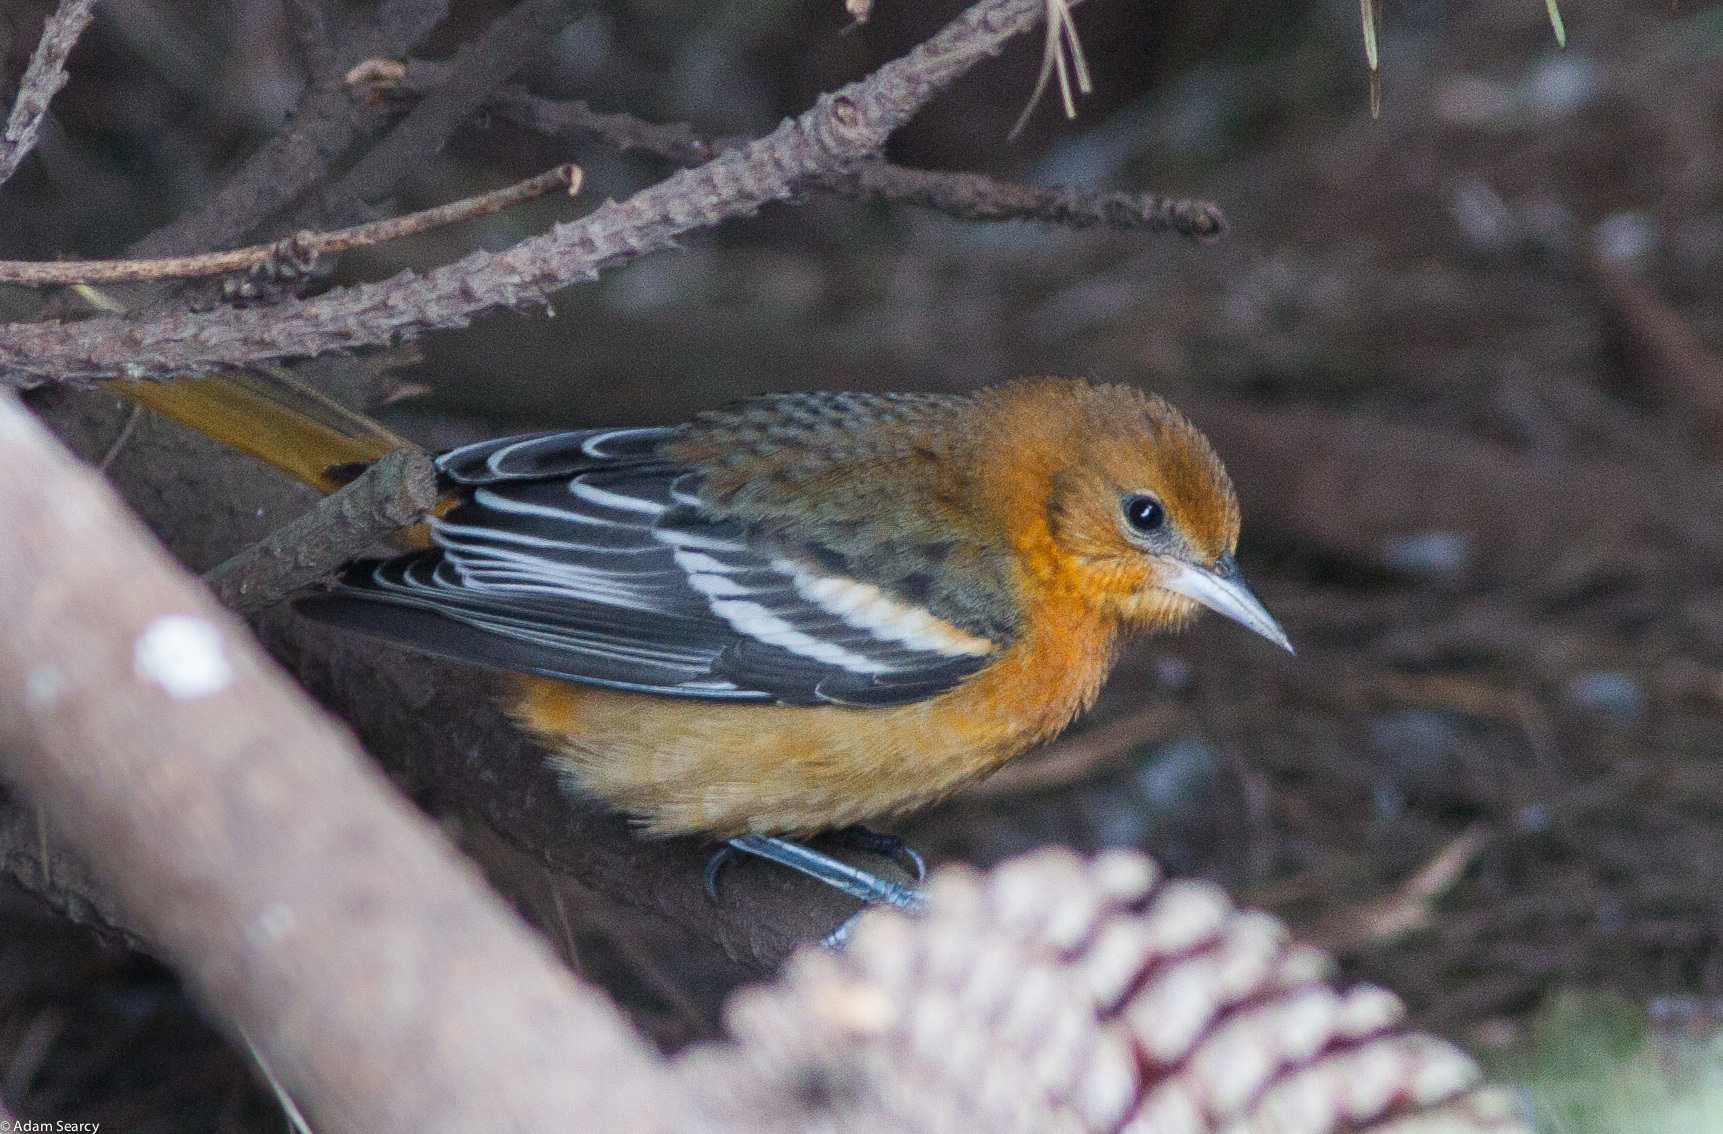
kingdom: Animalia
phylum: Chordata
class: Aves
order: Passeriformes
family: Icteridae
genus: Icterus
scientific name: Icterus galbula
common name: Baltimore oriole
